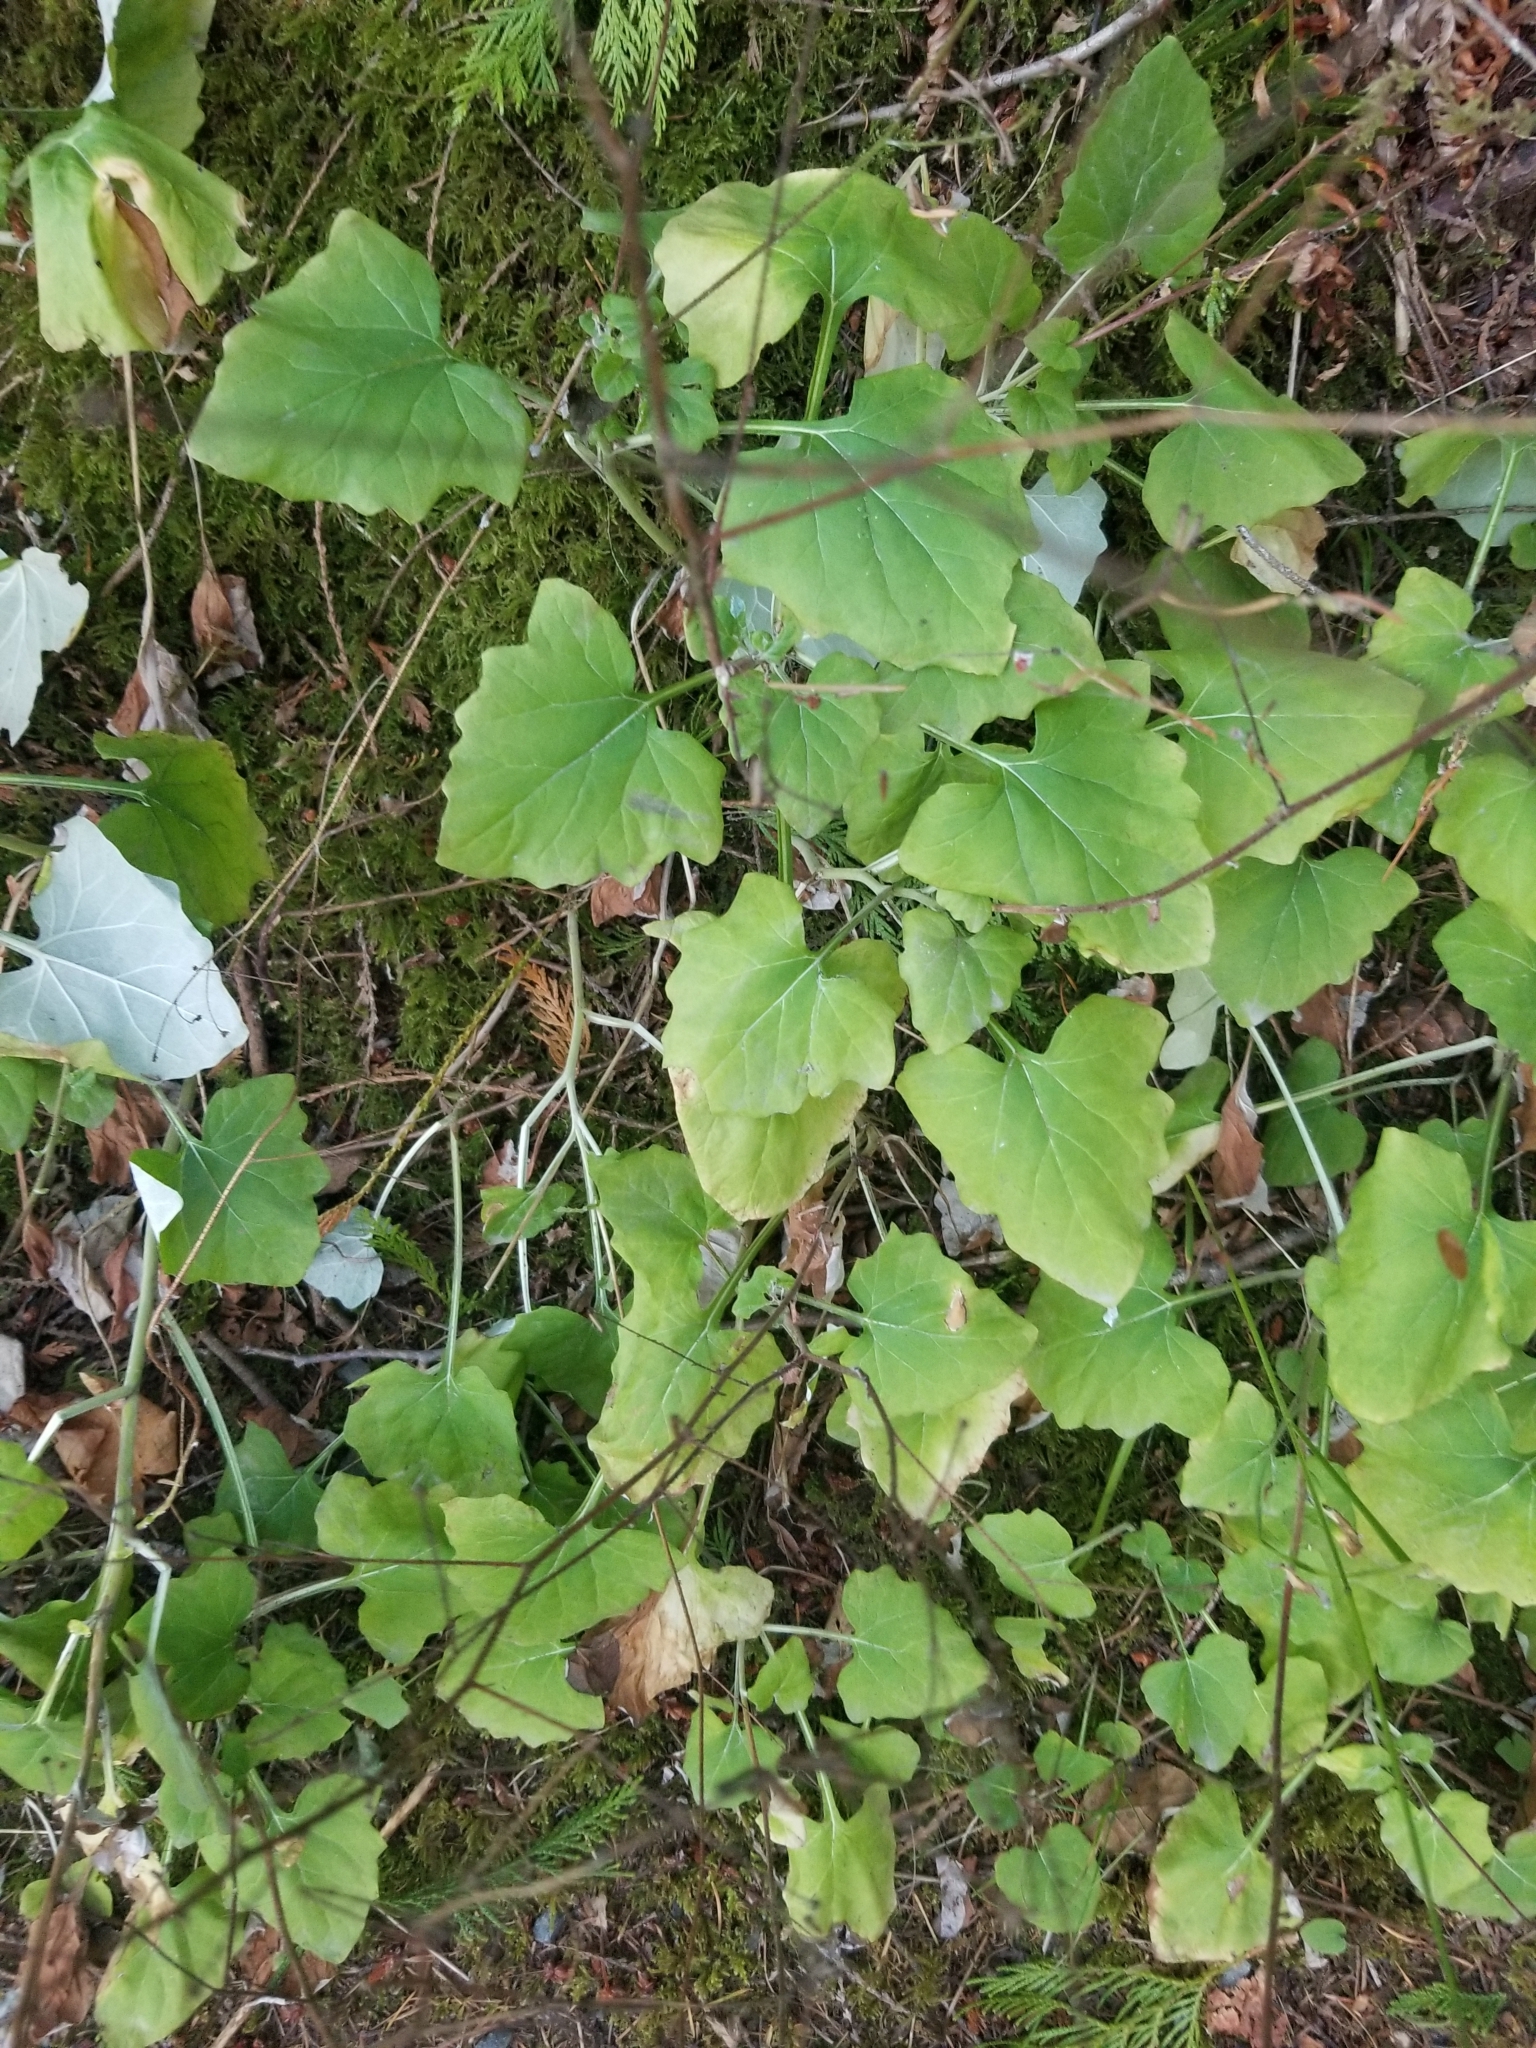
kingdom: Plantae
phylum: Tracheophyta
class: Magnoliopsida
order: Asterales
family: Asteraceae
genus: Adenocaulon
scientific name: Adenocaulon bicolor
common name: Trailplant
